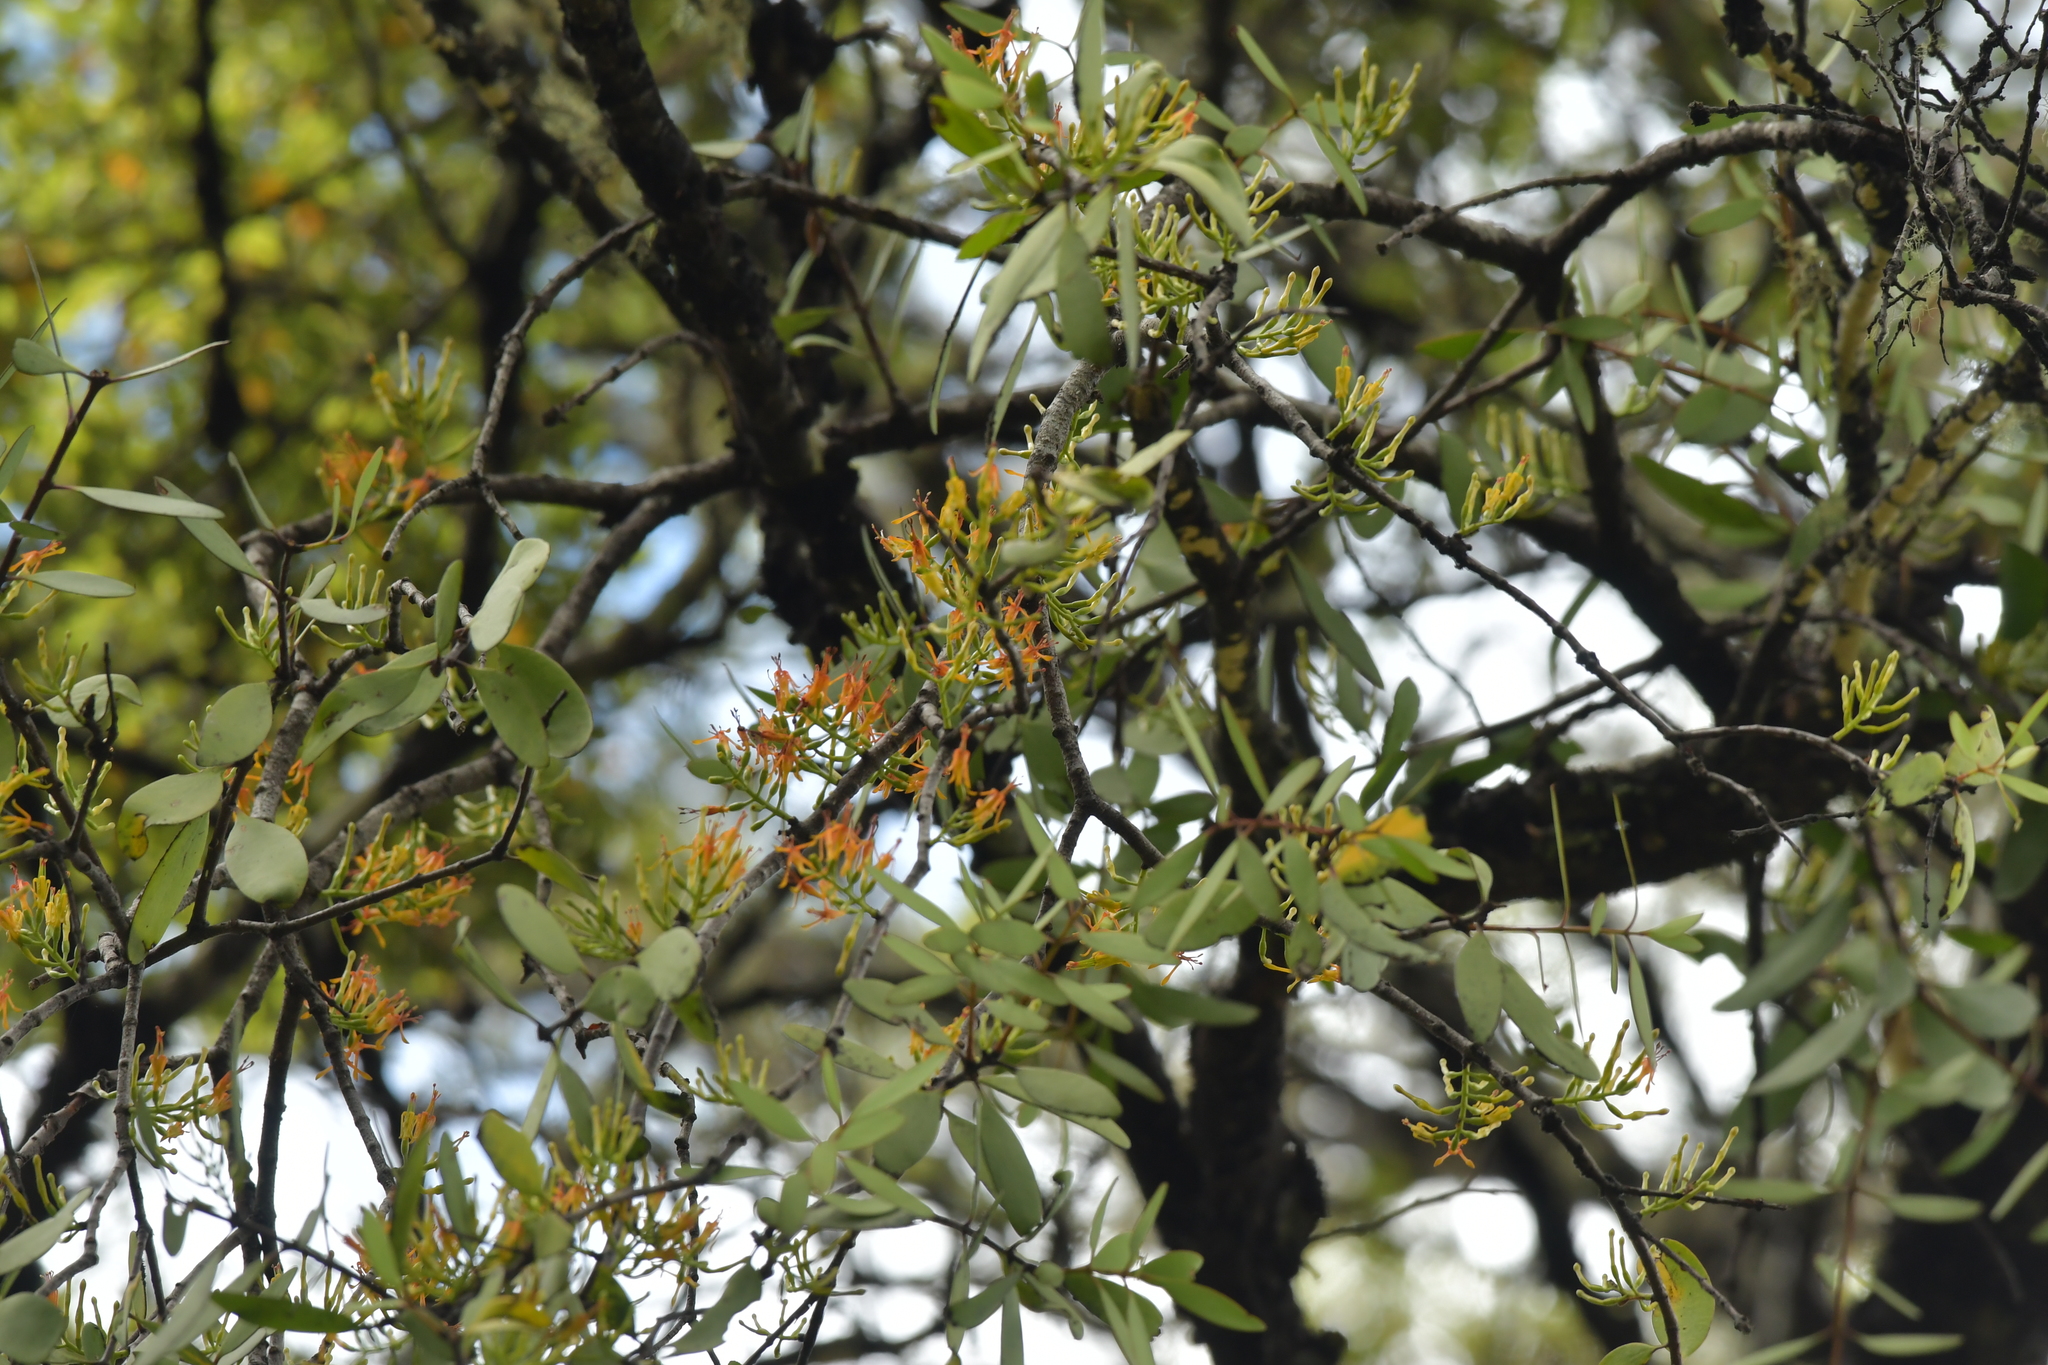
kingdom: Plantae
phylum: Tracheophyta
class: Magnoliopsida
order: Santalales
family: Loranthaceae
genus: Alepis
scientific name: Alepis flavida
